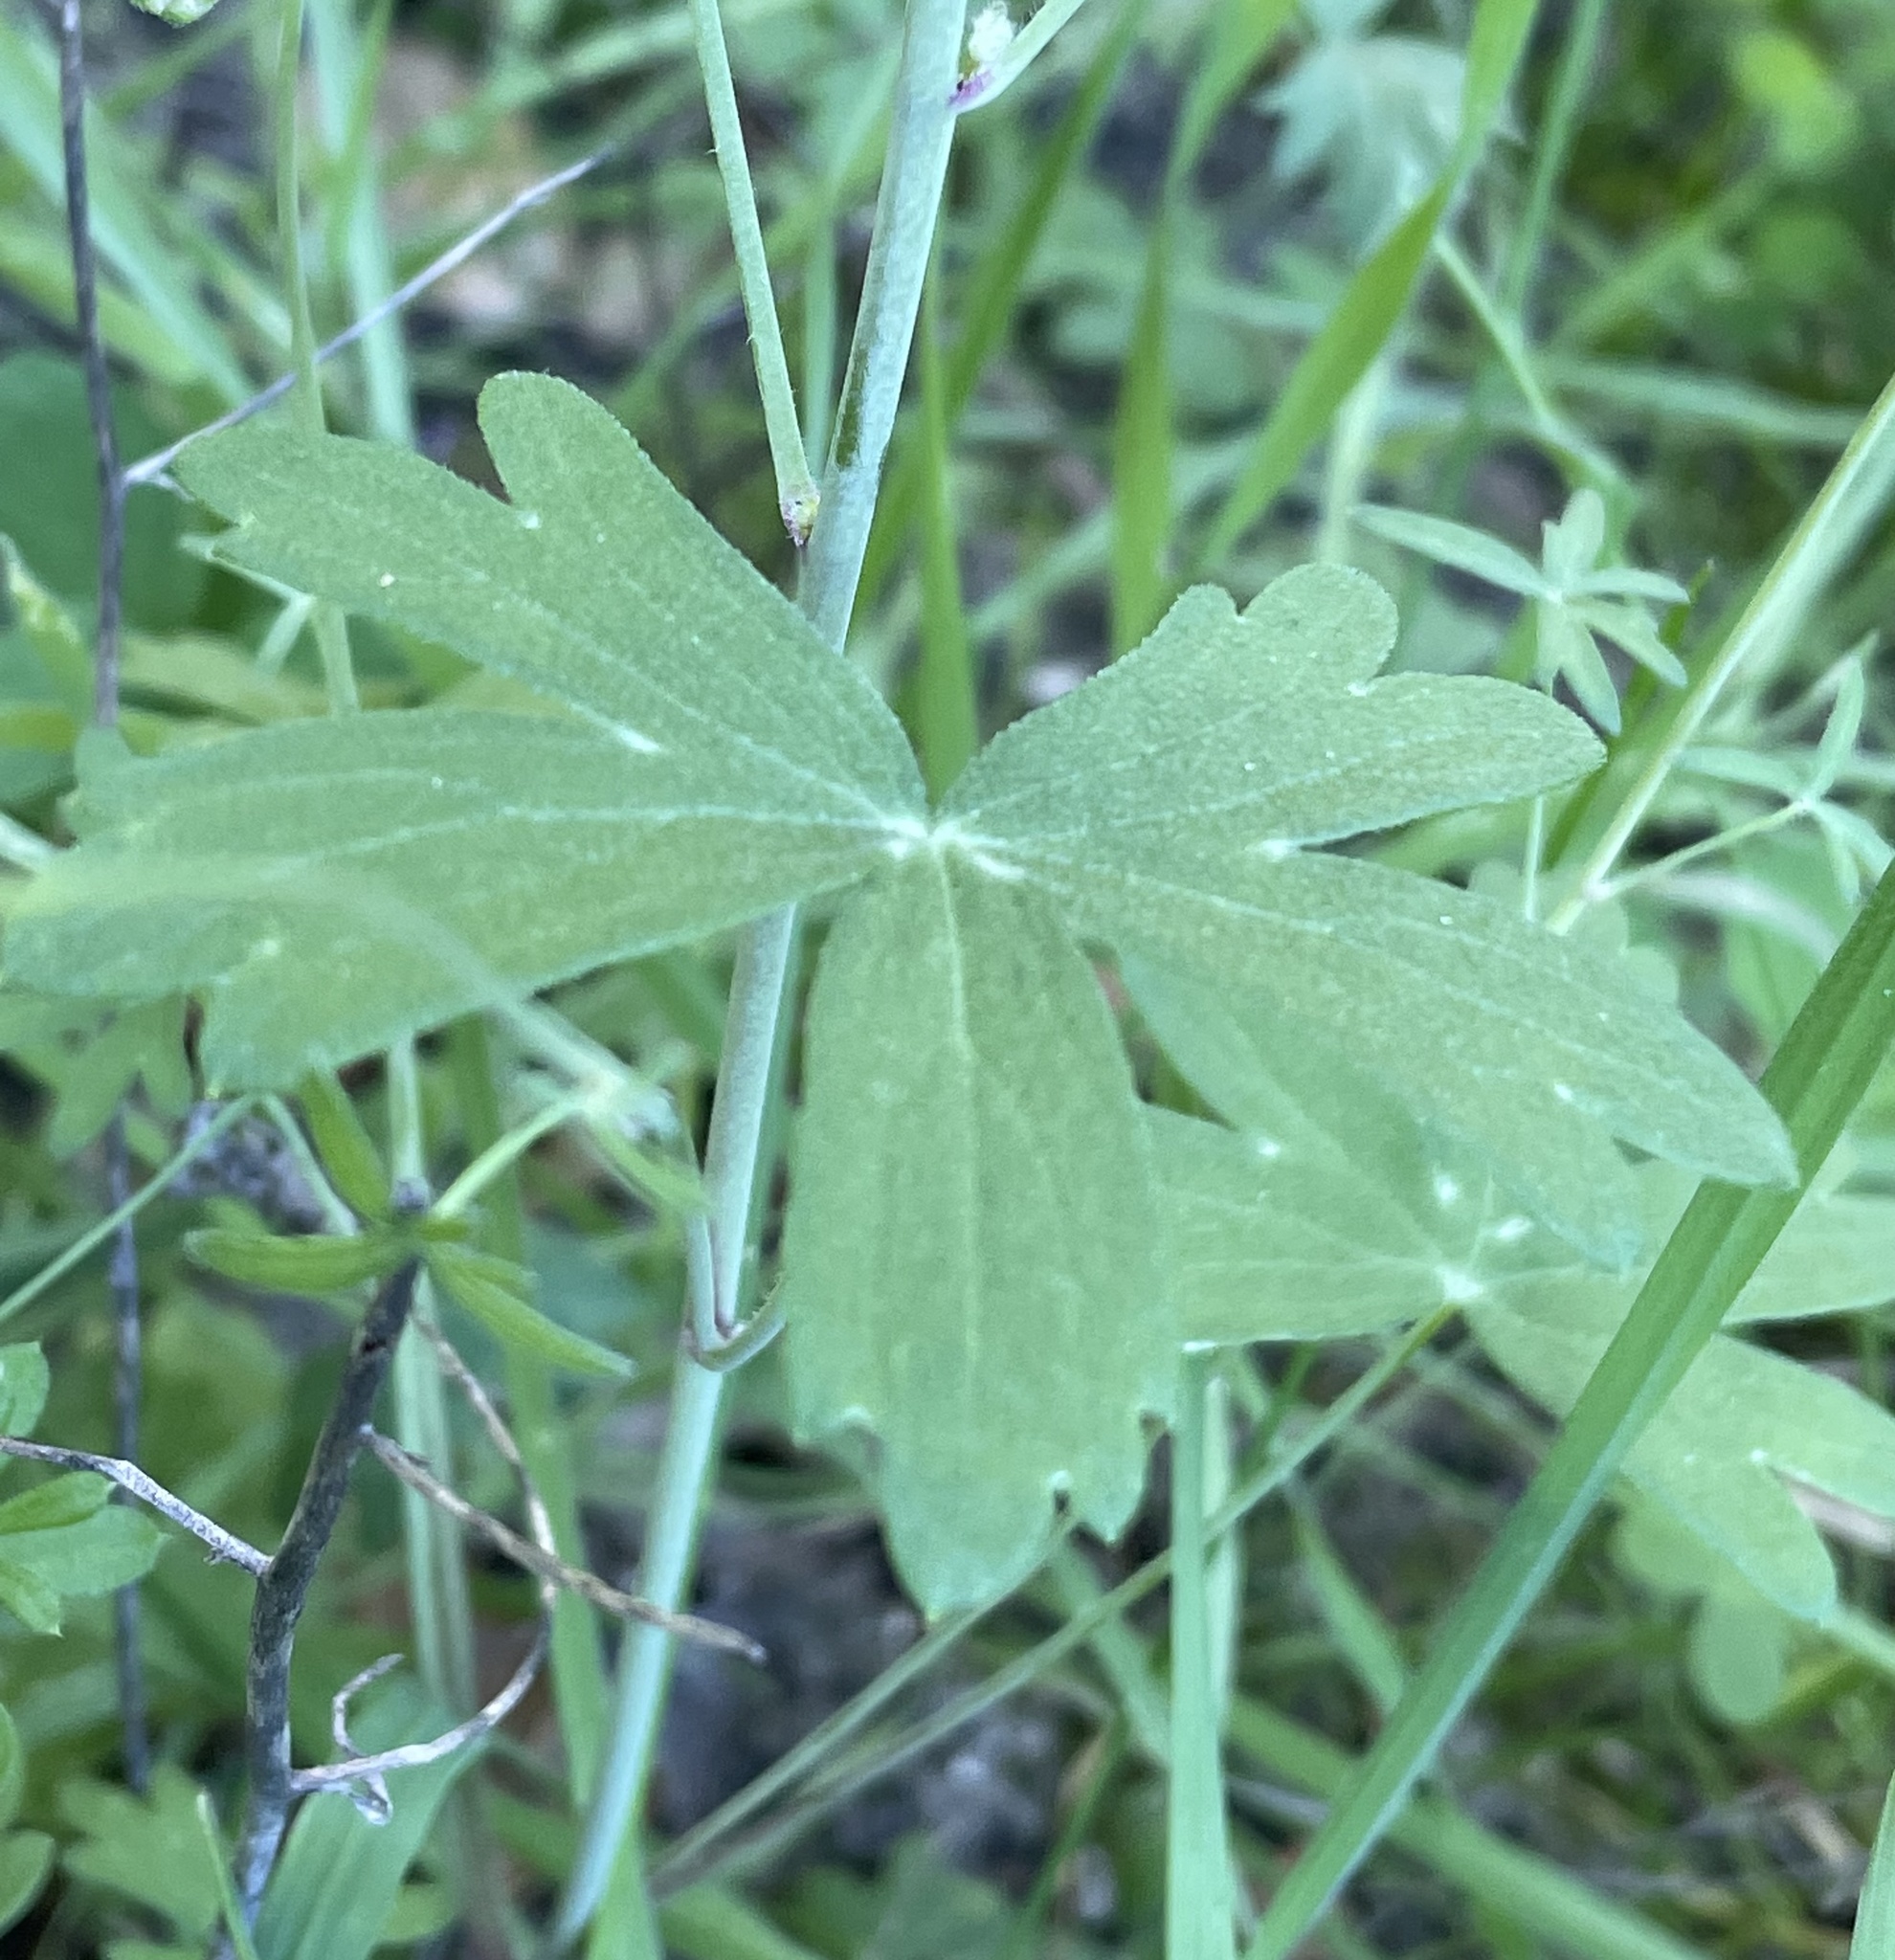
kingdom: Plantae
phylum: Tracheophyta
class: Magnoliopsida
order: Ranunculales
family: Ranunculaceae
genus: Delphinium
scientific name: Delphinium patens
